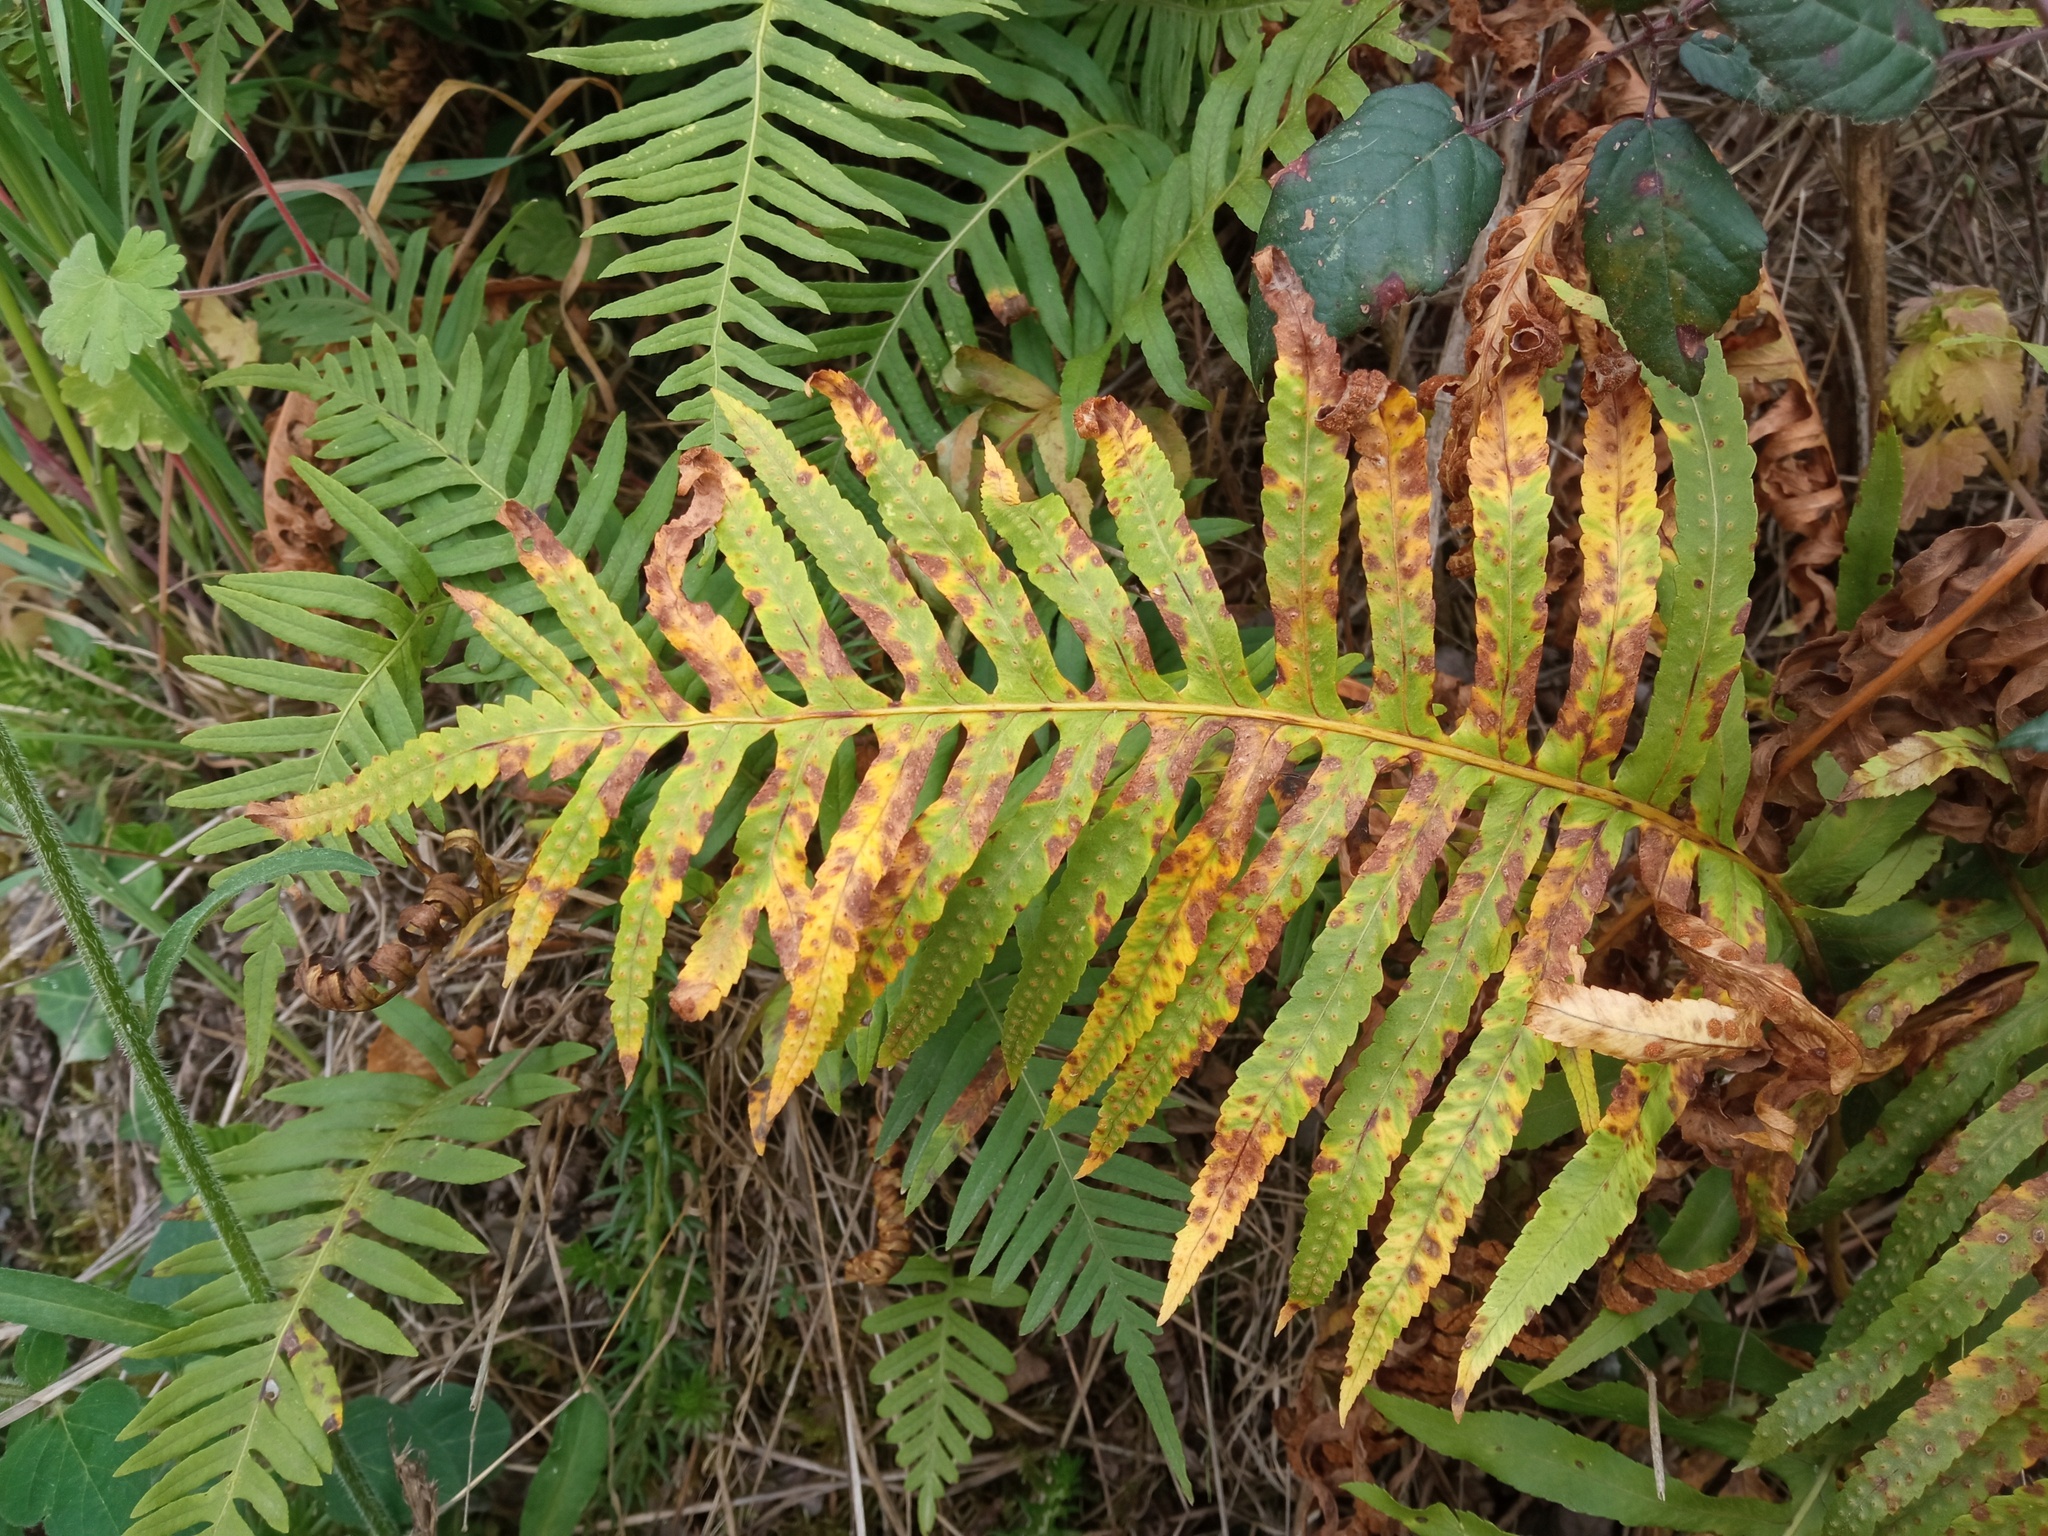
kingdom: Plantae
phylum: Tracheophyta
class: Polypodiopsida
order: Polypodiales
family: Polypodiaceae
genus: Polypodium
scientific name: Polypodium cambricum
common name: Southern polypody
